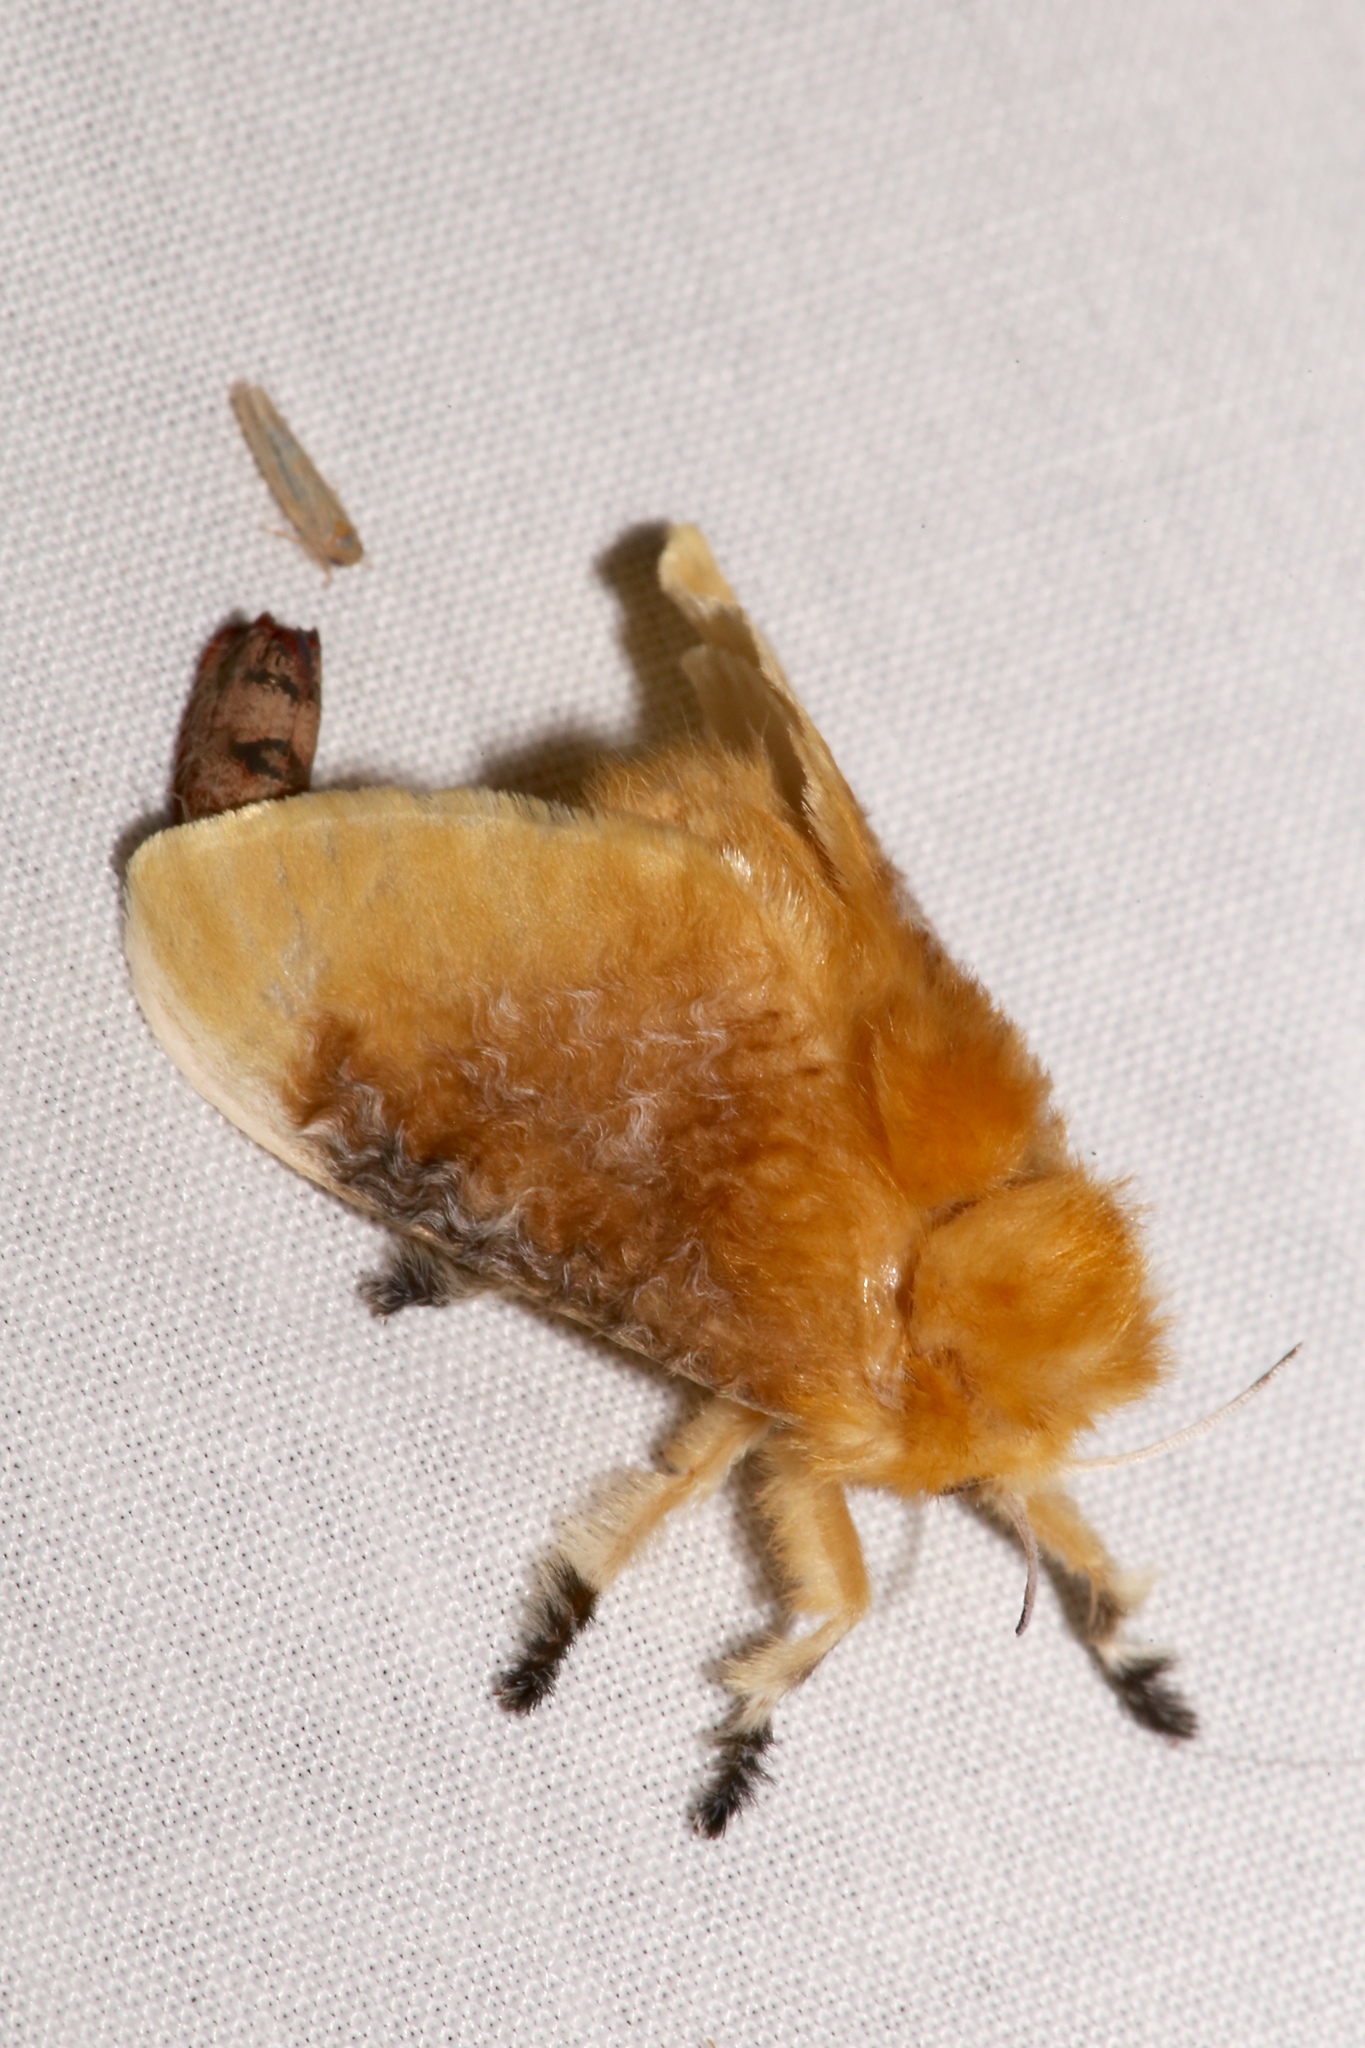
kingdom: Animalia
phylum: Arthropoda
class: Insecta
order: Lepidoptera
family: Megalopygidae
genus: Megalopyge
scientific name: Megalopyge opercularis
